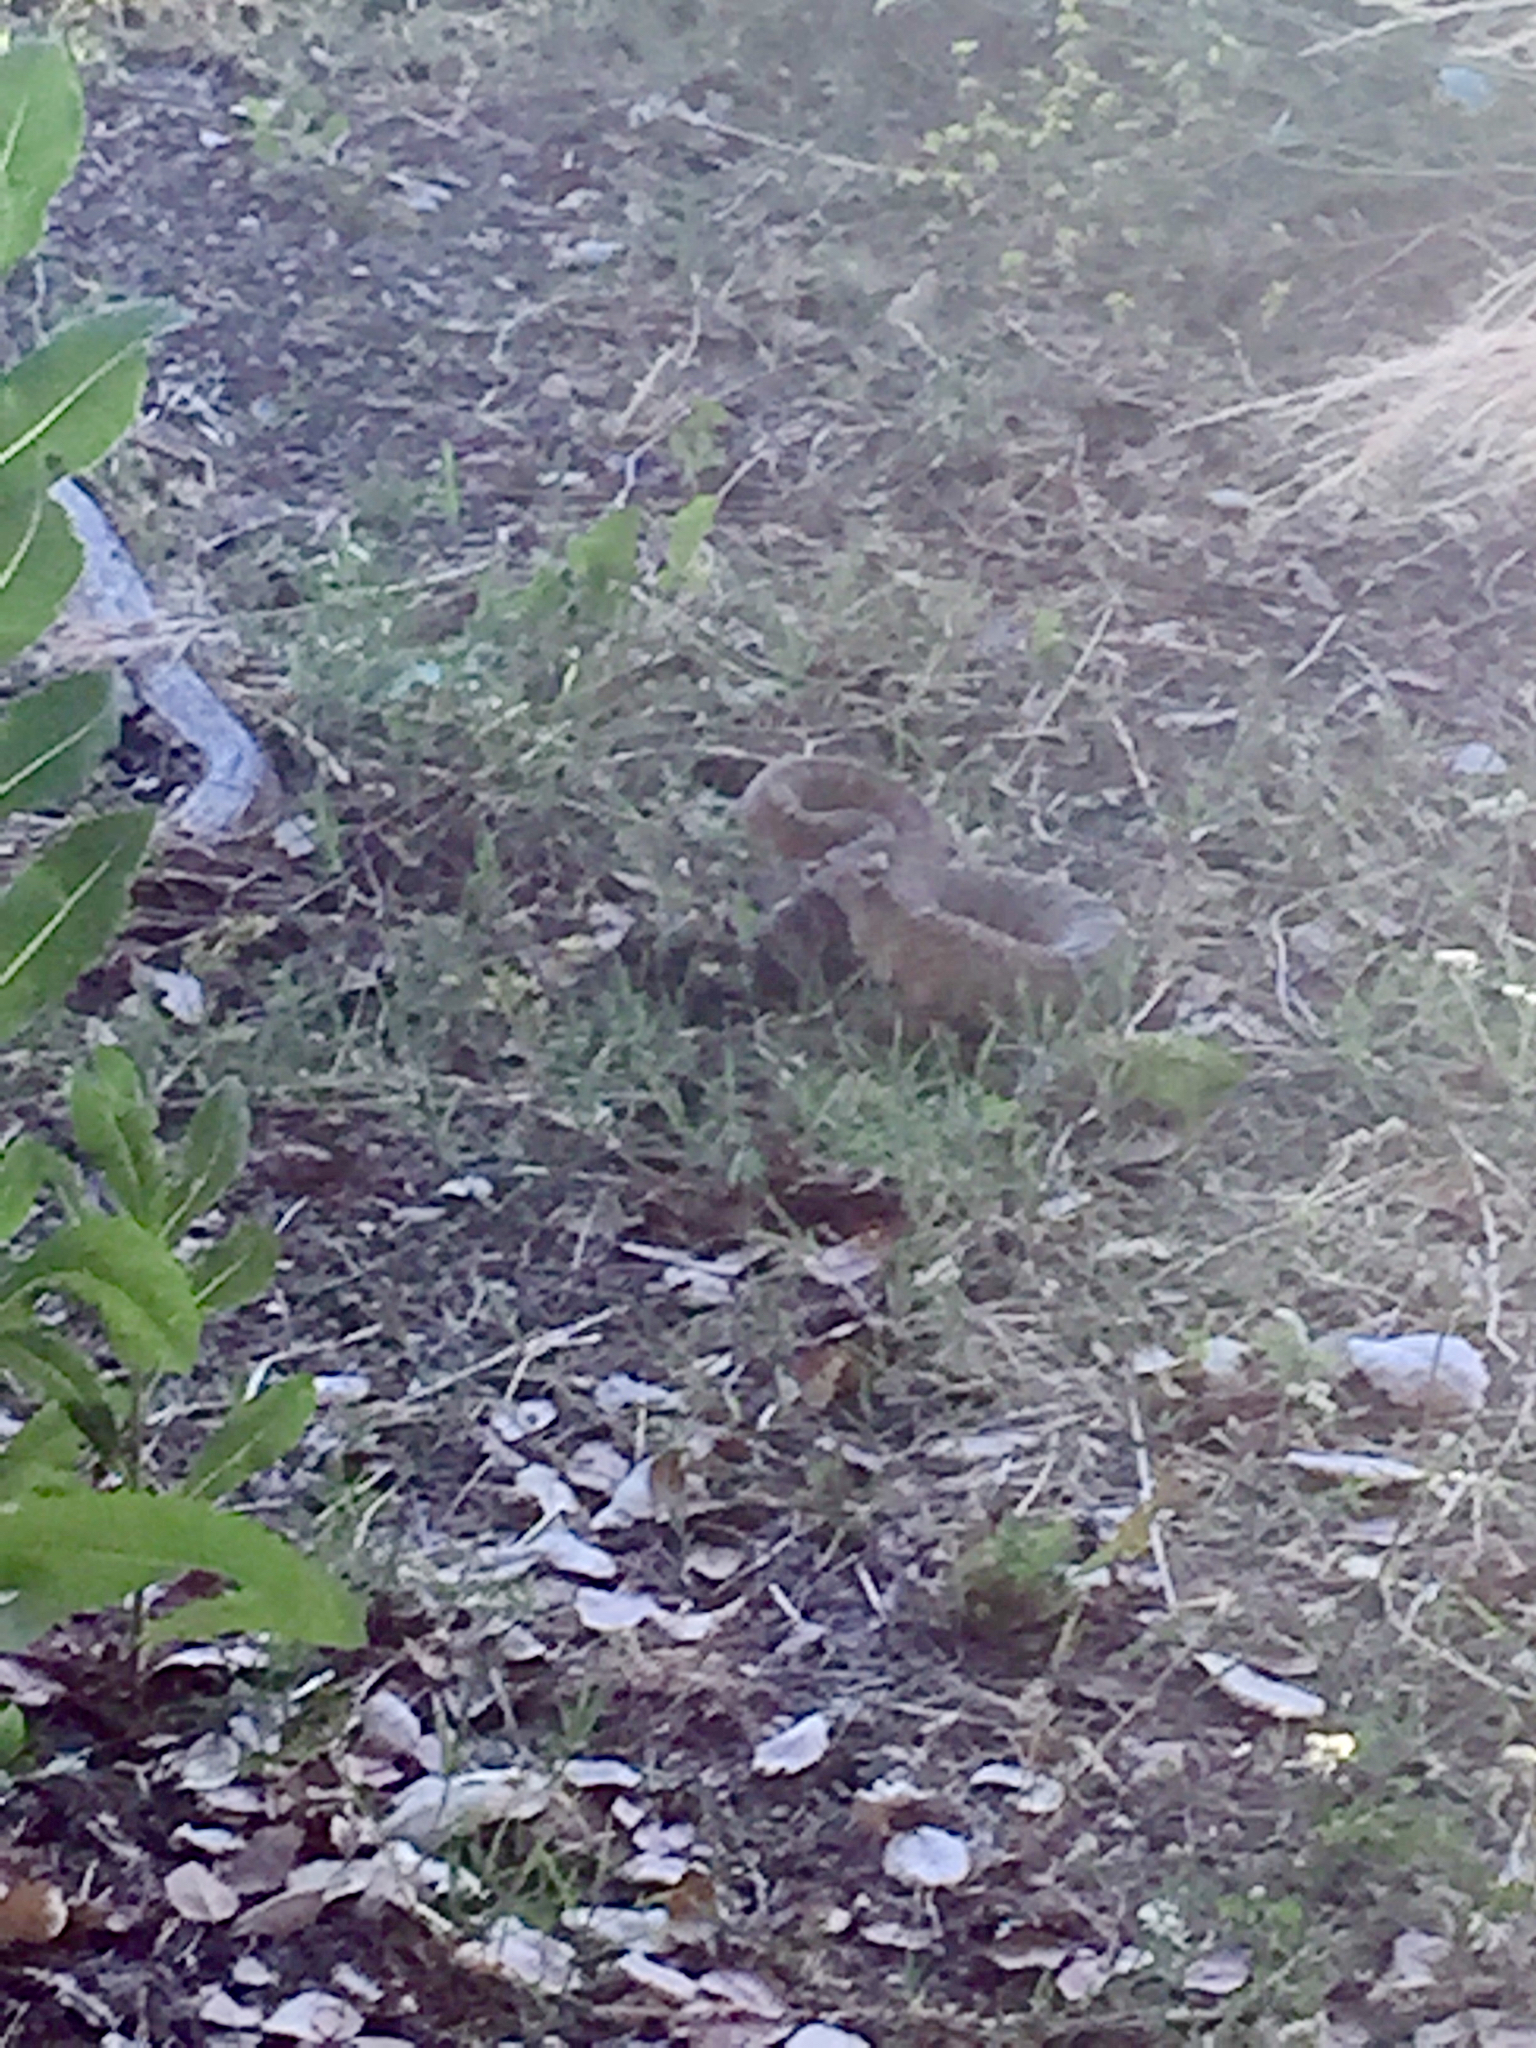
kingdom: Animalia
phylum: Chordata
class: Squamata
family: Viperidae
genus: Crotalus
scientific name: Crotalus oreganus
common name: Abyssus
